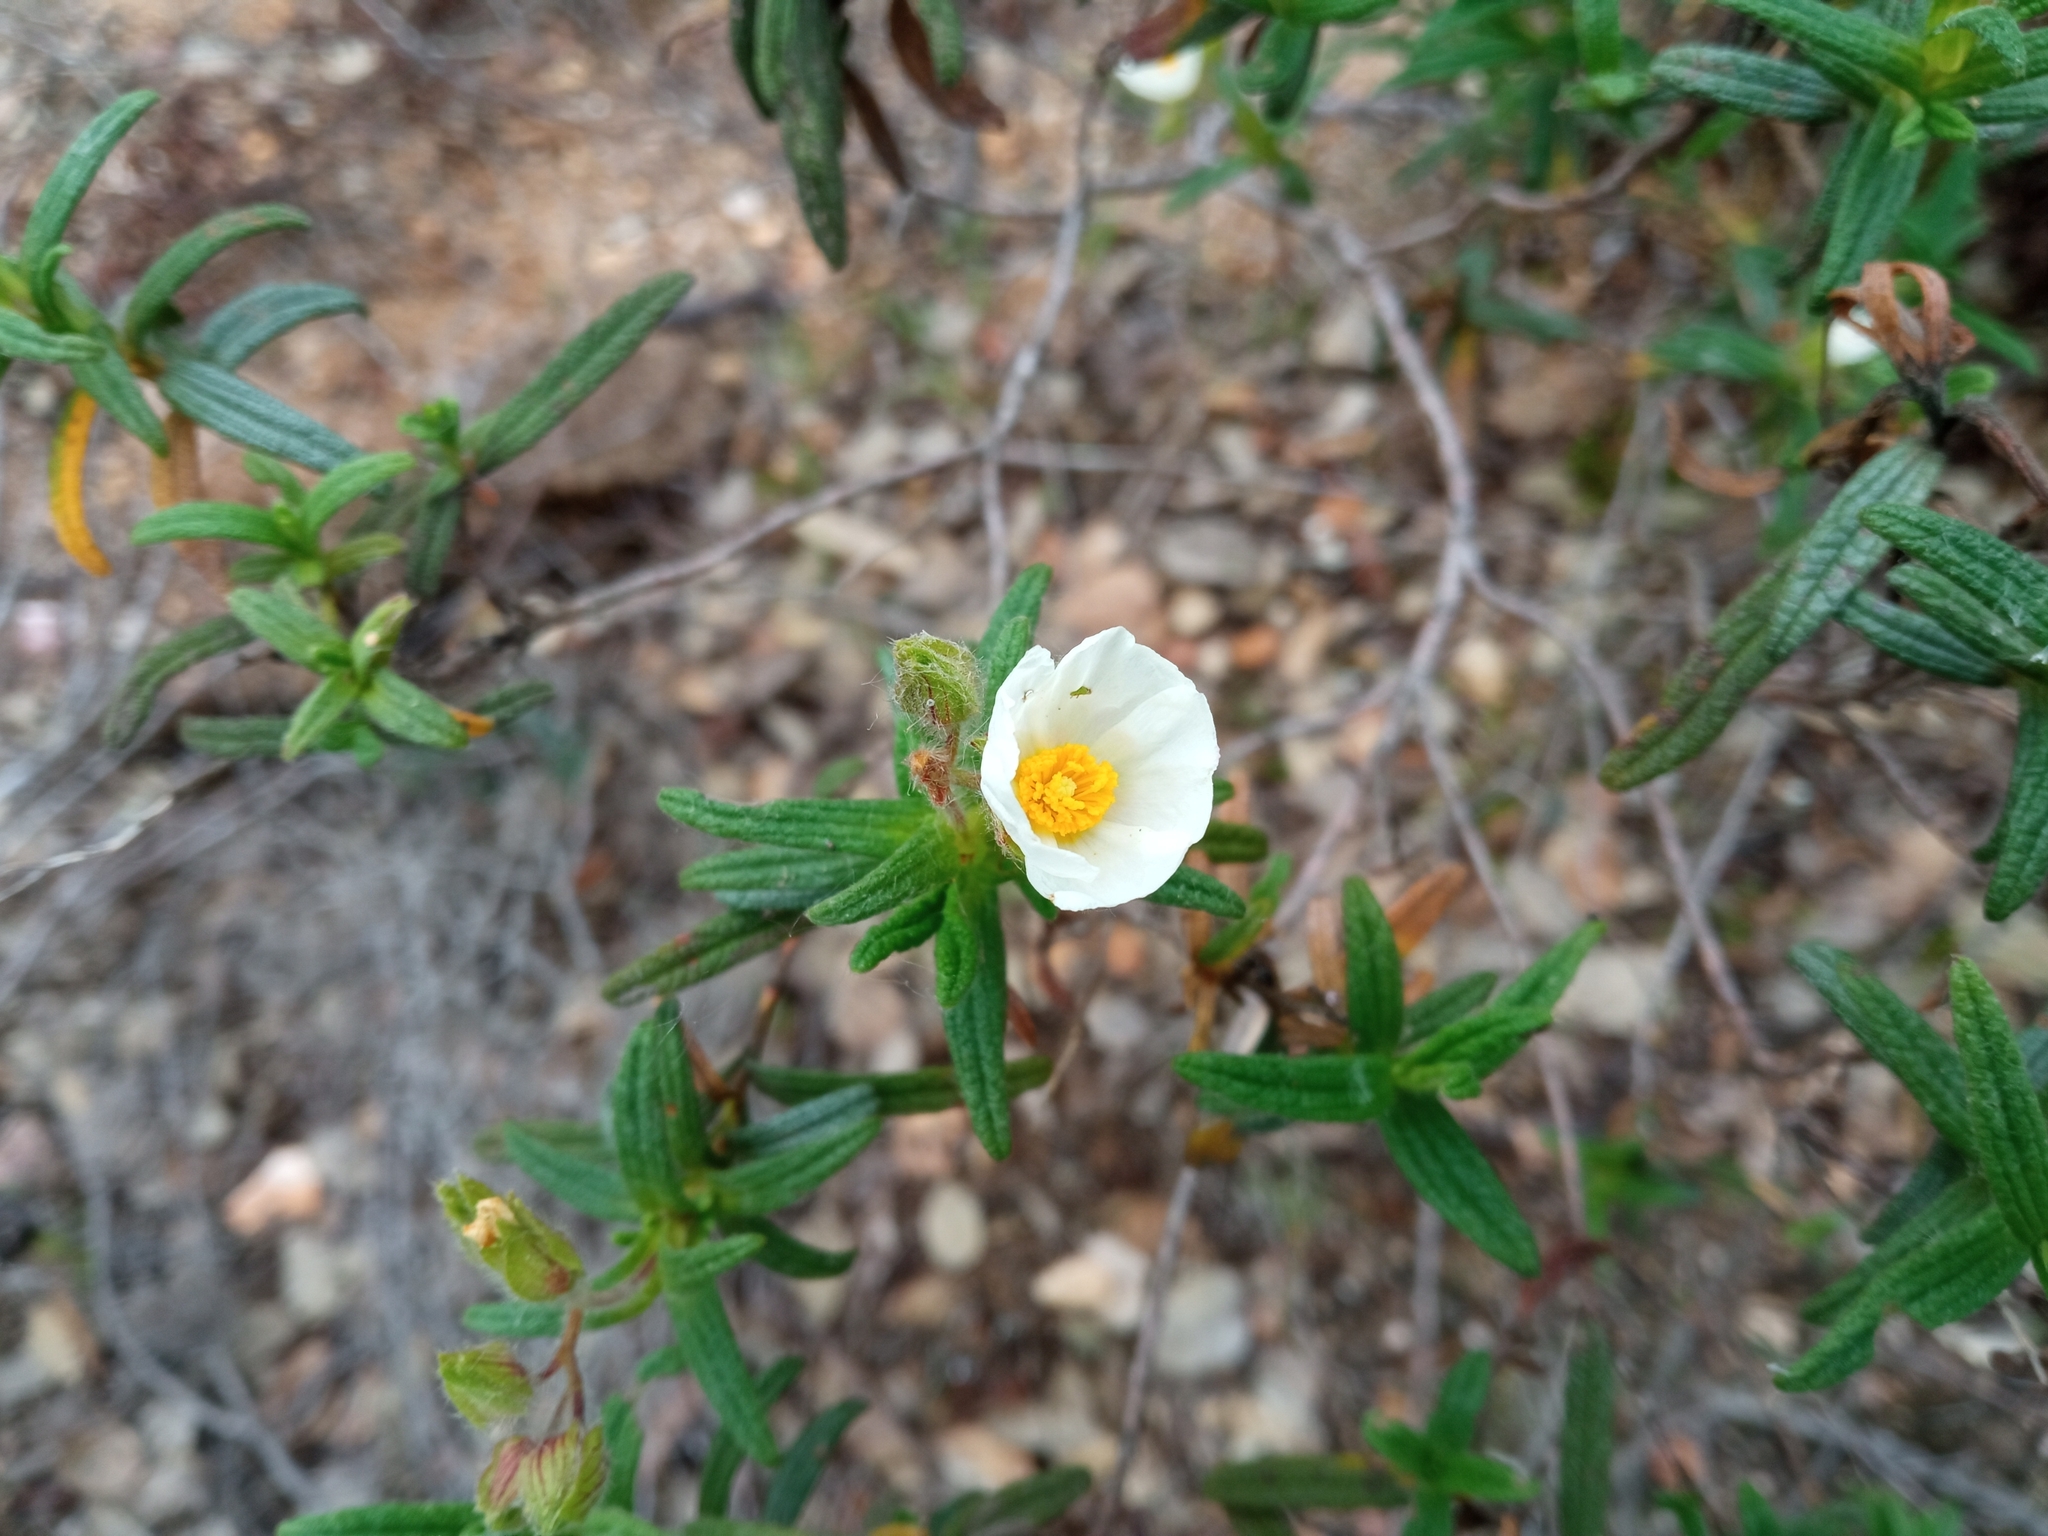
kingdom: Plantae
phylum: Tracheophyta
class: Magnoliopsida
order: Malvales
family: Cistaceae
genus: Cistus
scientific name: Cistus monspeliensis
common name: Montpelier cistus
